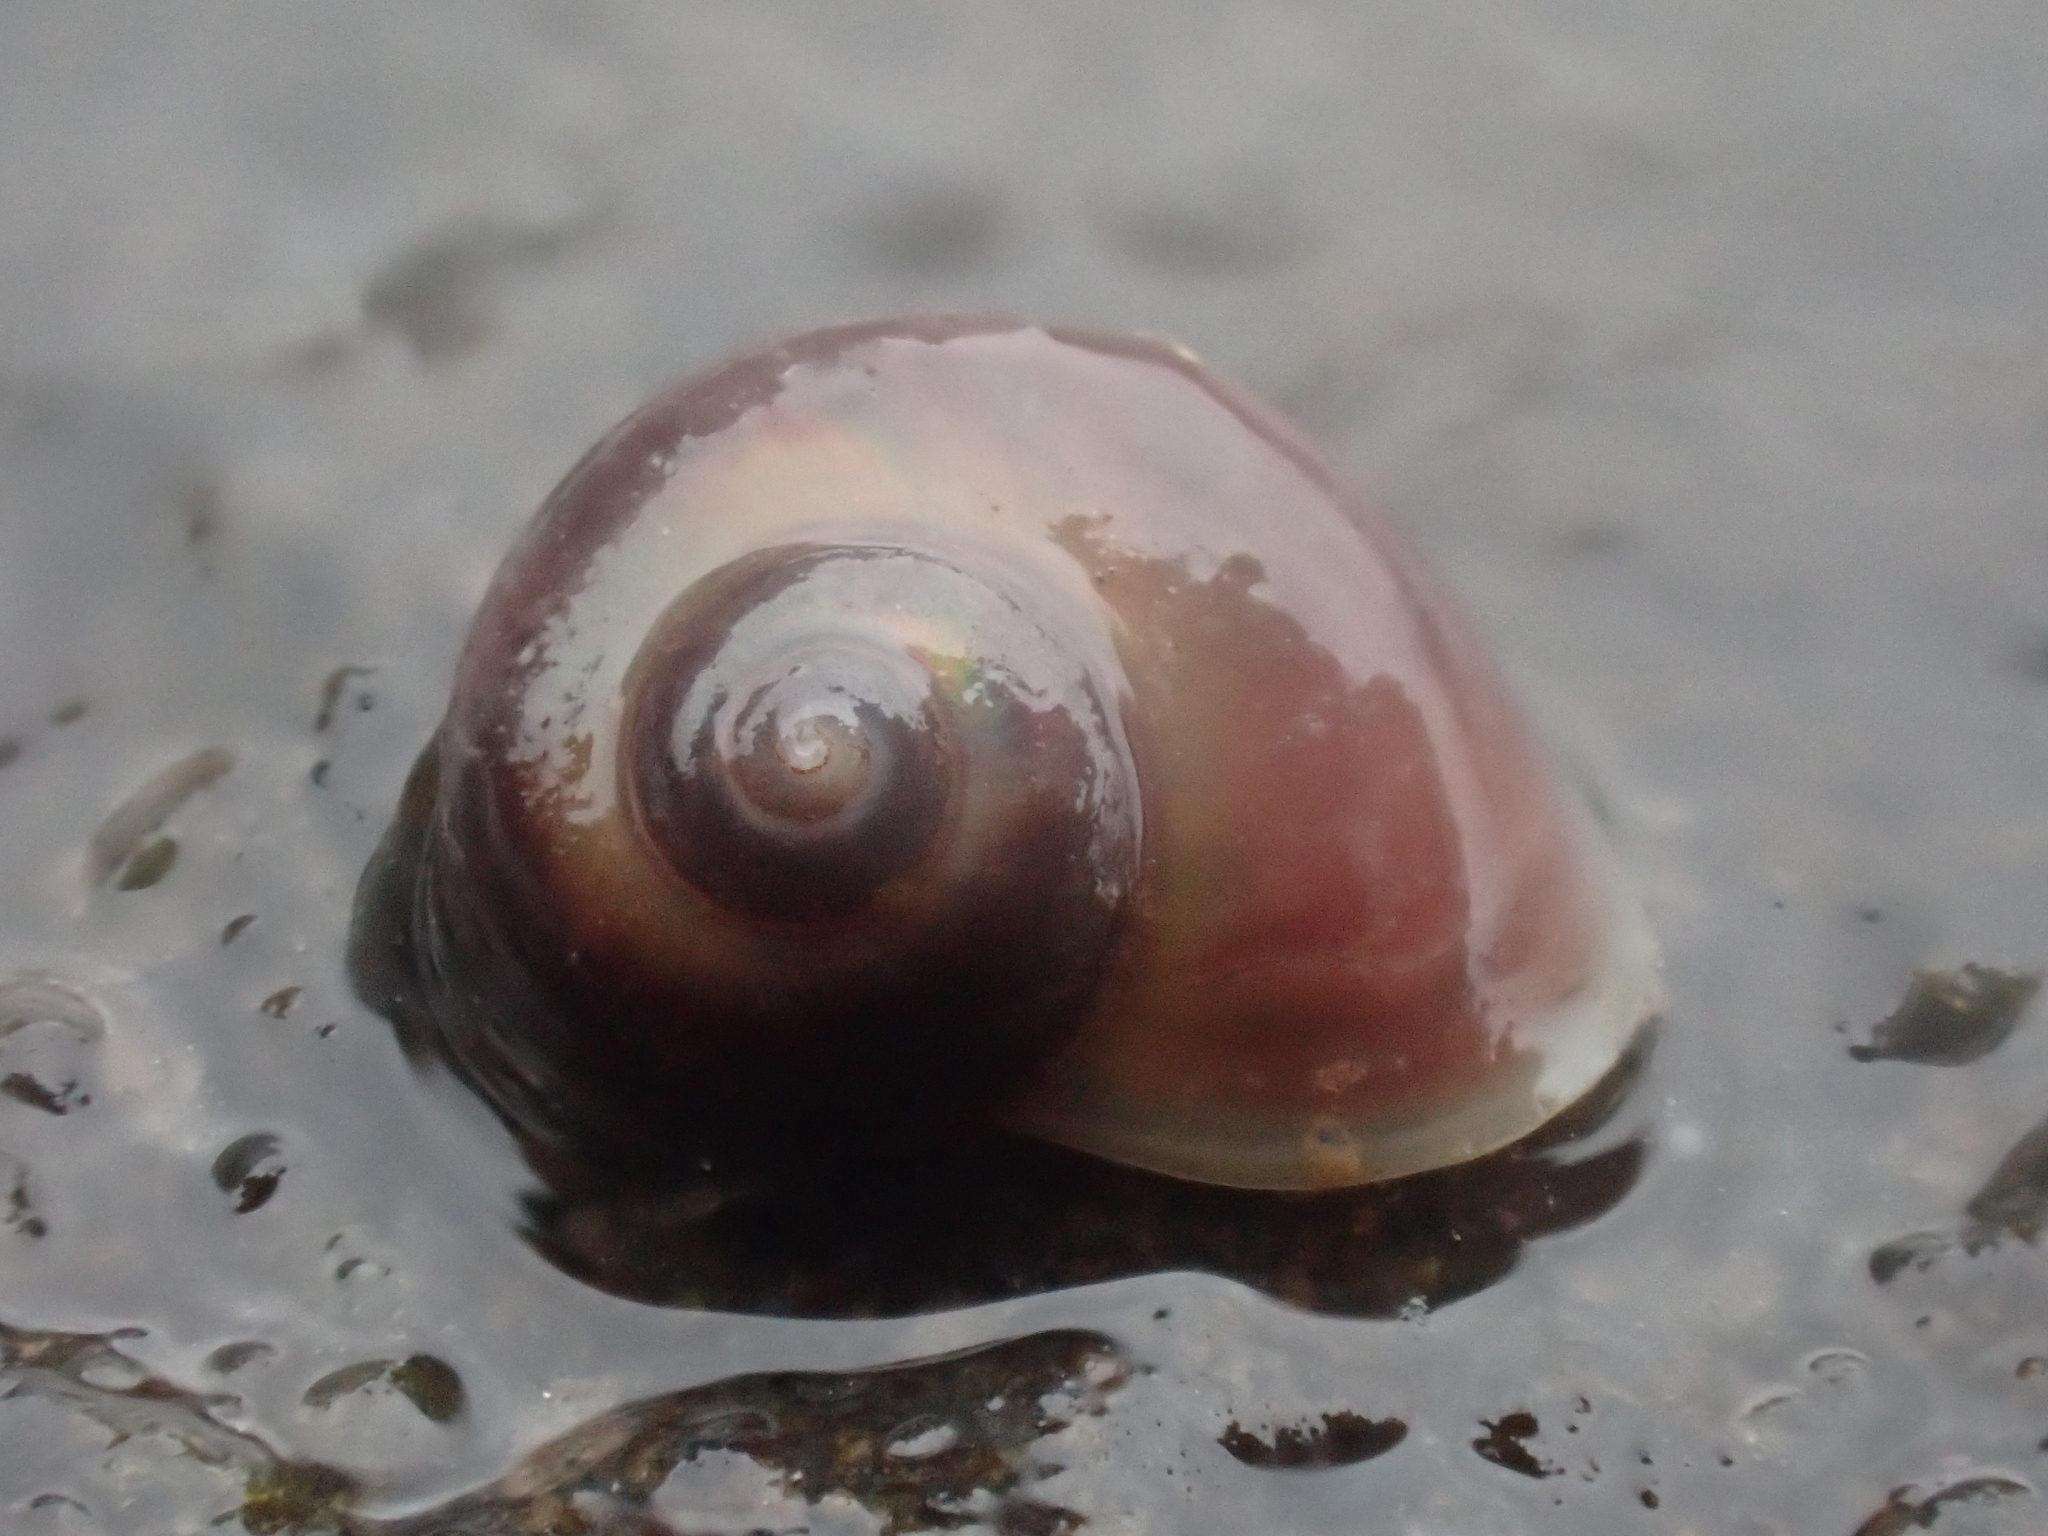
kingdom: Animalia
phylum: Mollusca
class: Gastropoda
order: Trochida
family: Margaritidae
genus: Margarites
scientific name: Margarites helicinus
